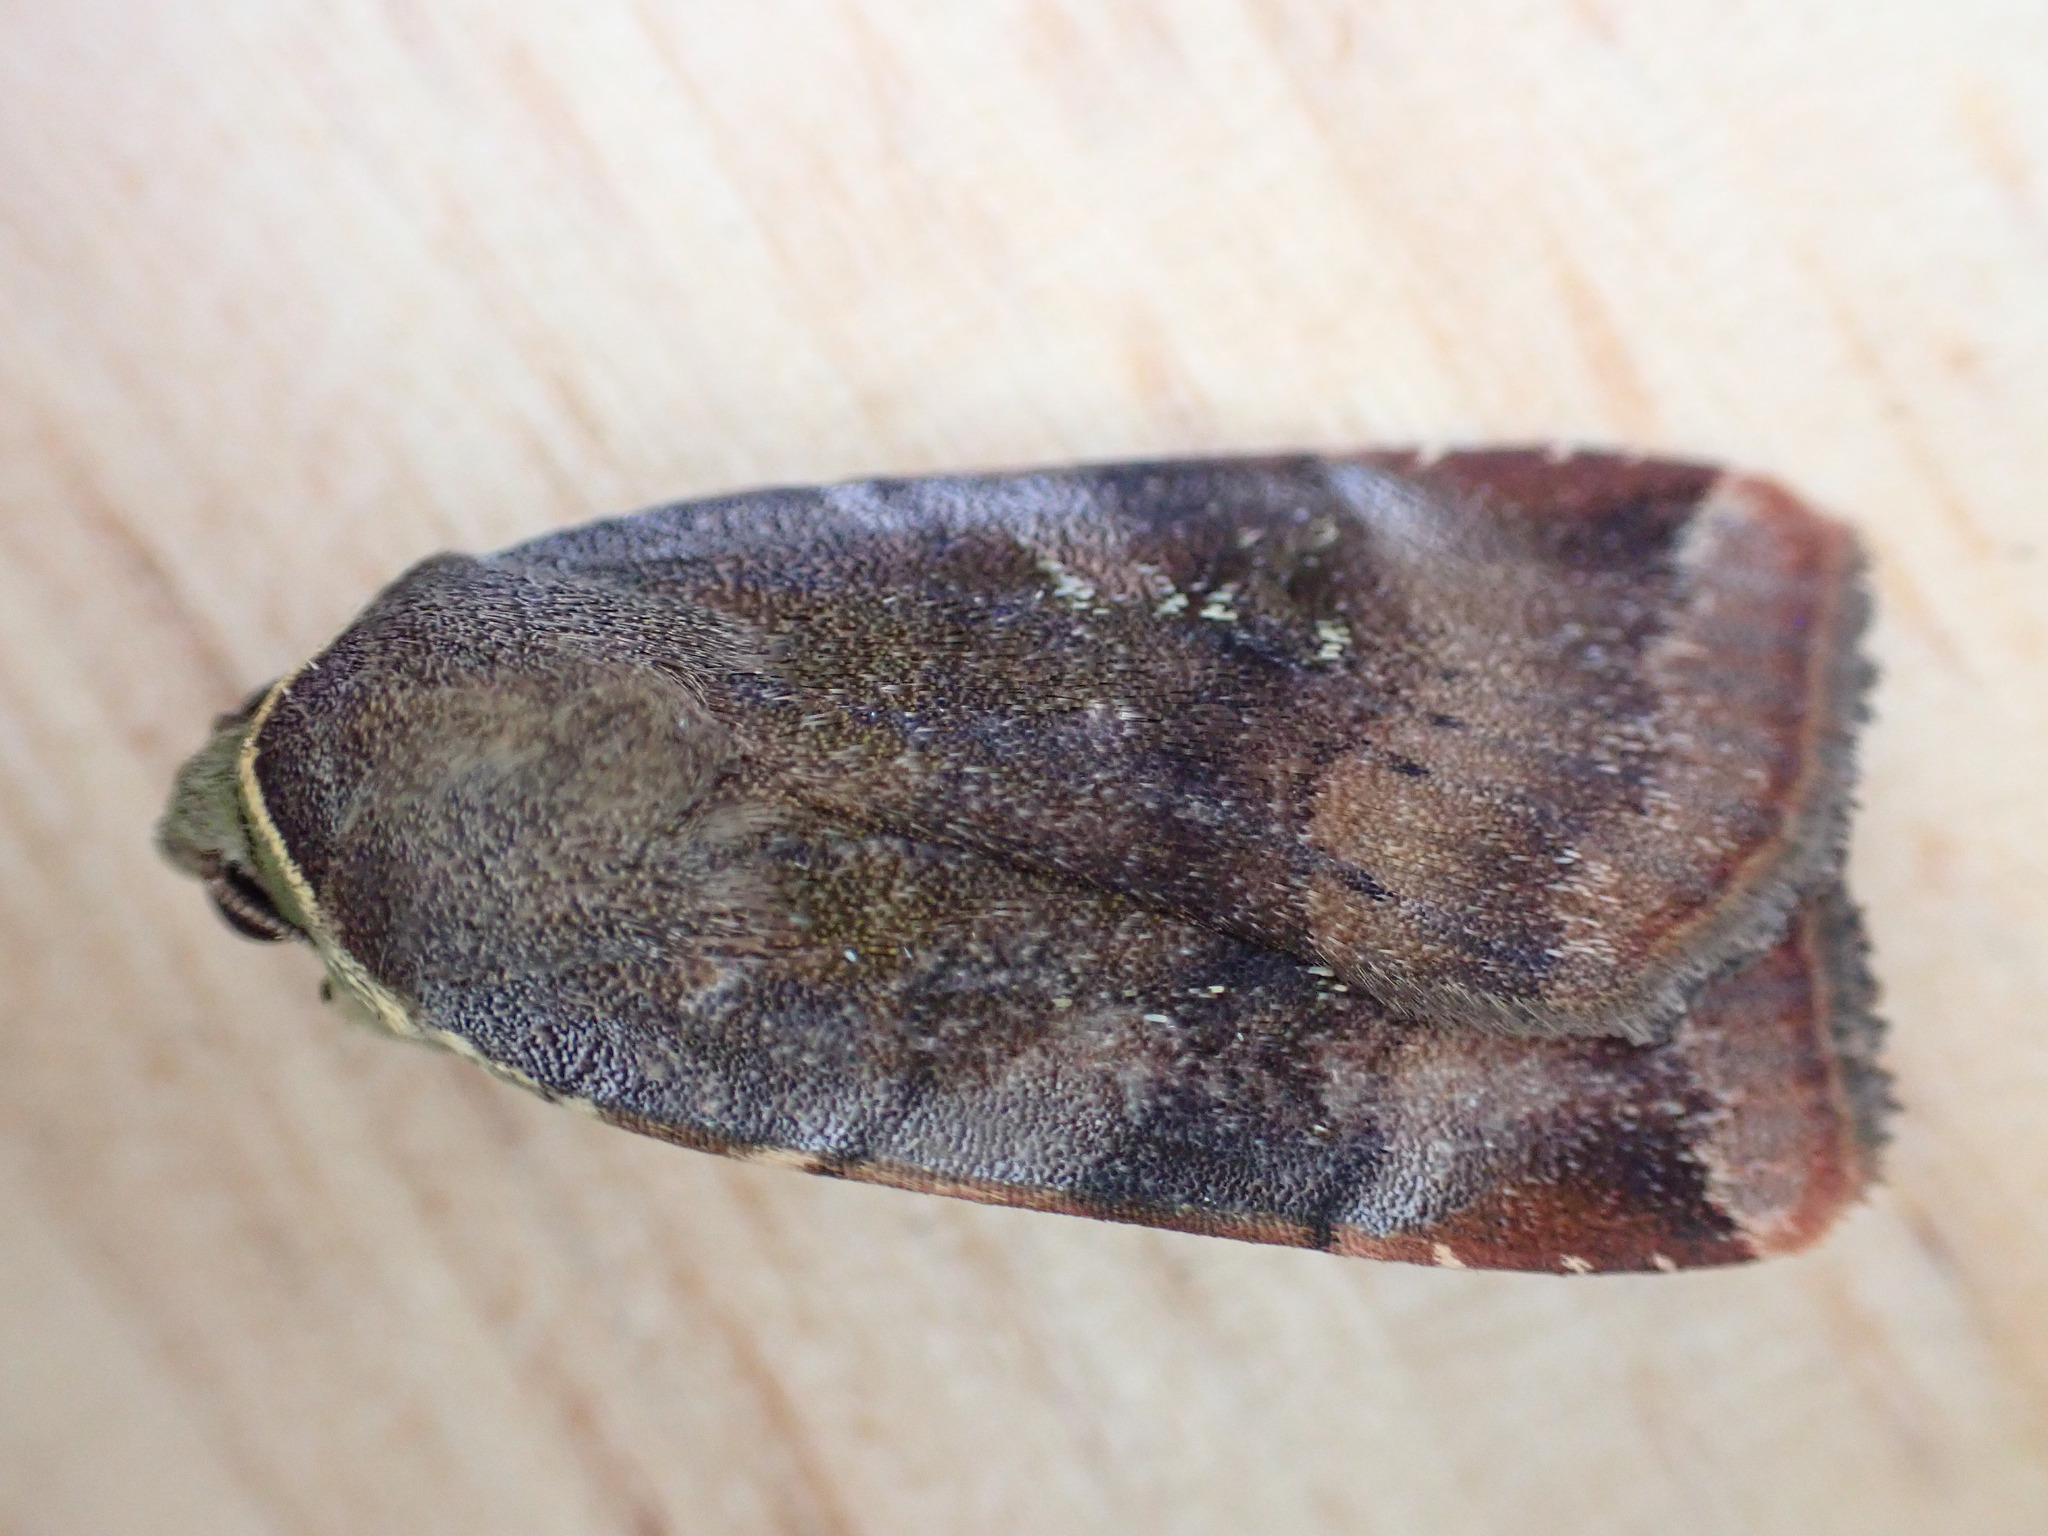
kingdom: Animalia
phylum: Arthropoda
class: Insecta
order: Lepidoptera
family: Noctuidae
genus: Noctua
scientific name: Noctua janthe
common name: Lesser broad-bordered yellow underwing
